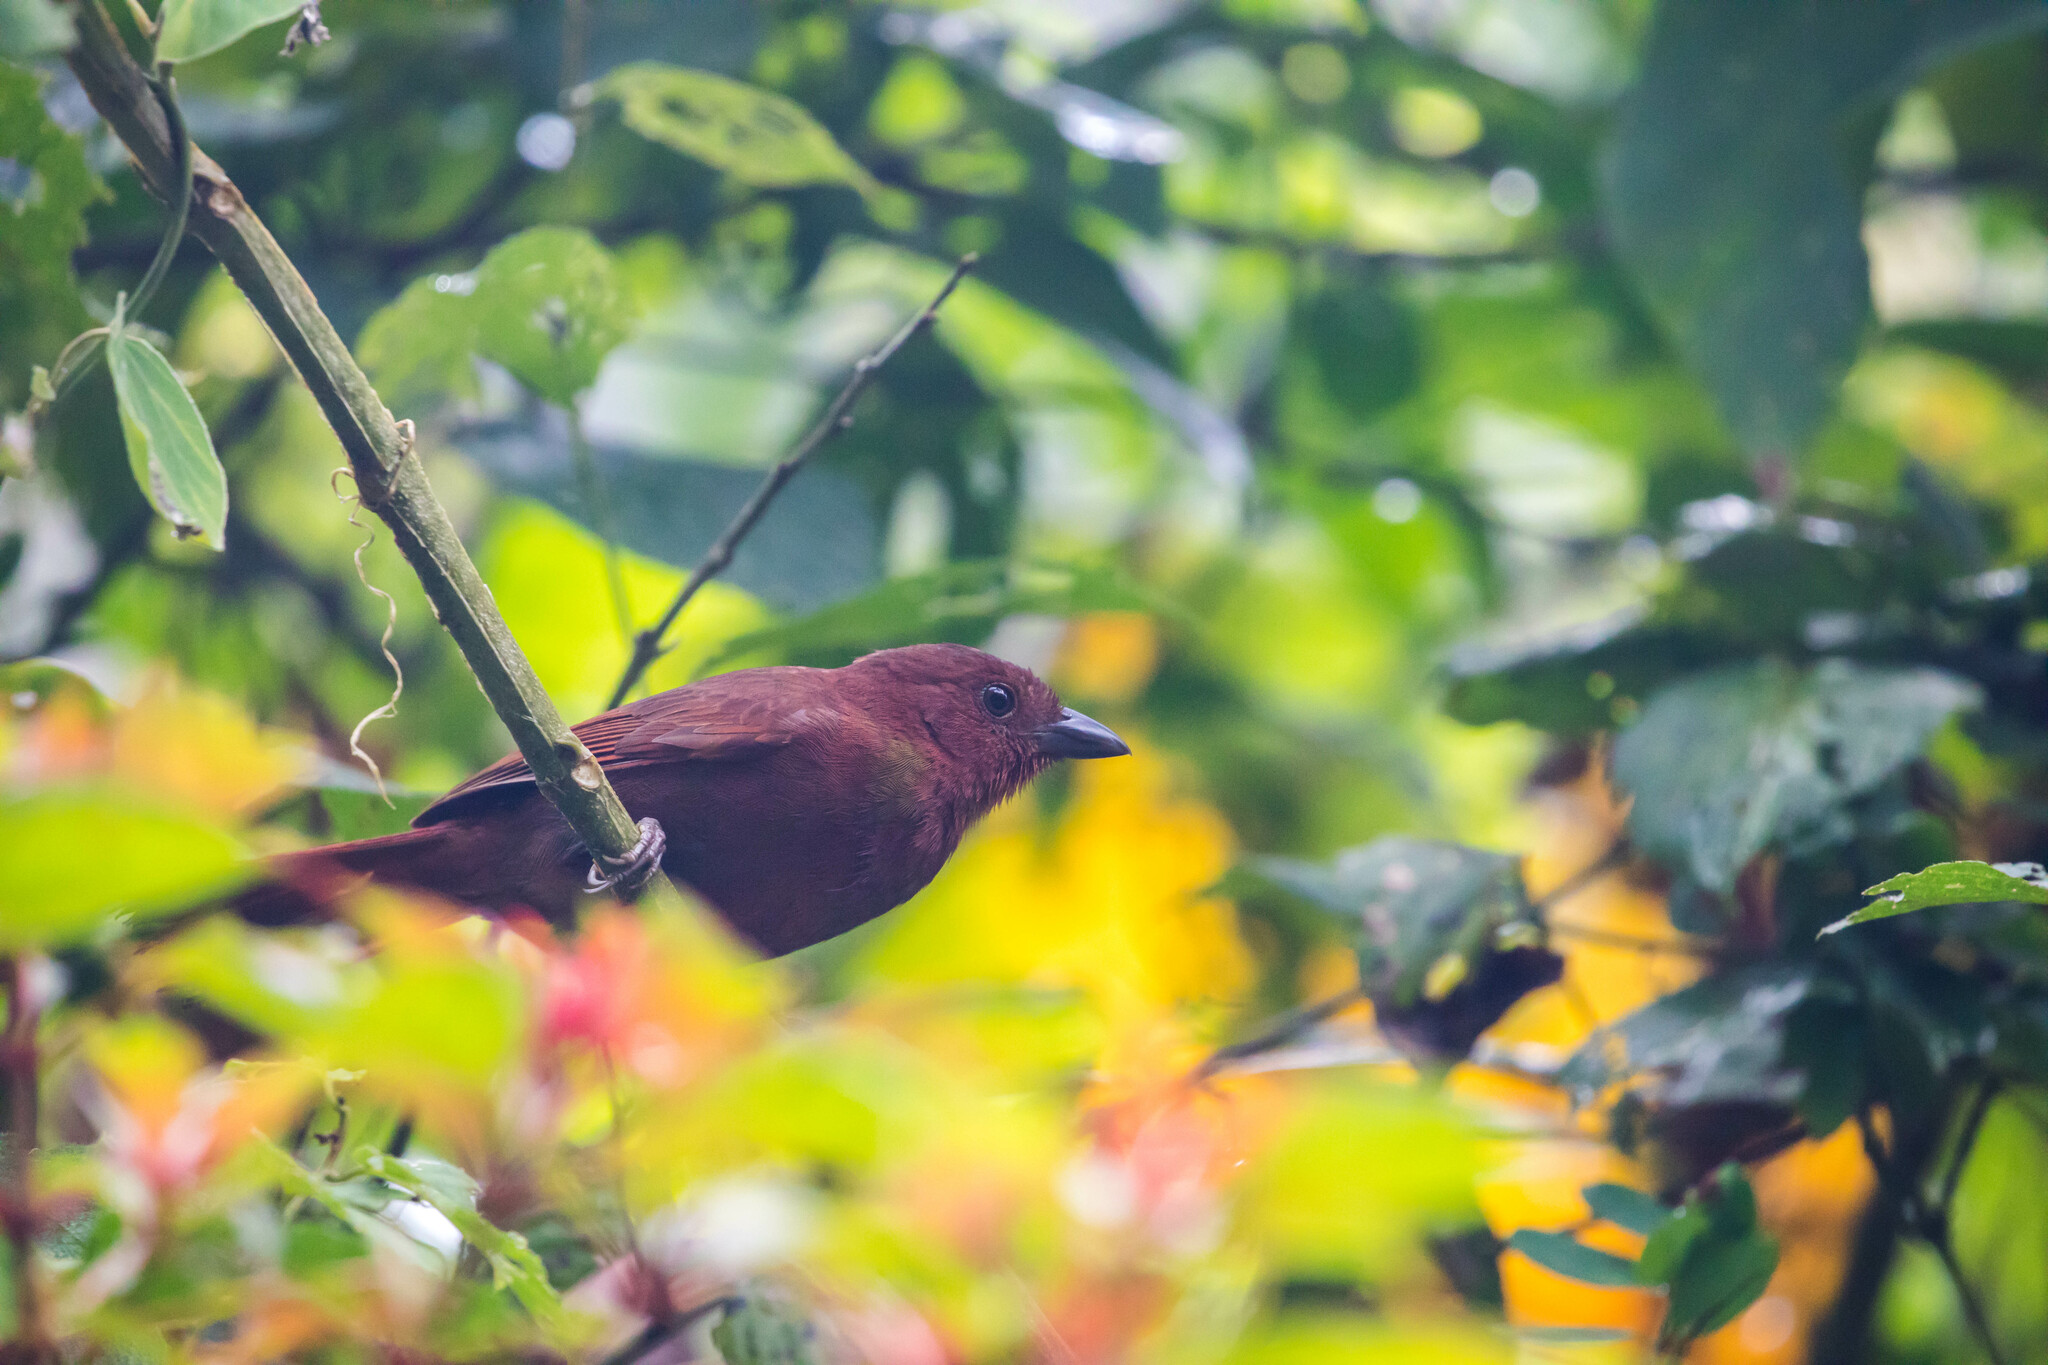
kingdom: Animalia
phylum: Chordata
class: Aves
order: Passeriformes
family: Cardinalidae
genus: Habia
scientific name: Habia rubica
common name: Red-crowned ant-tanager
